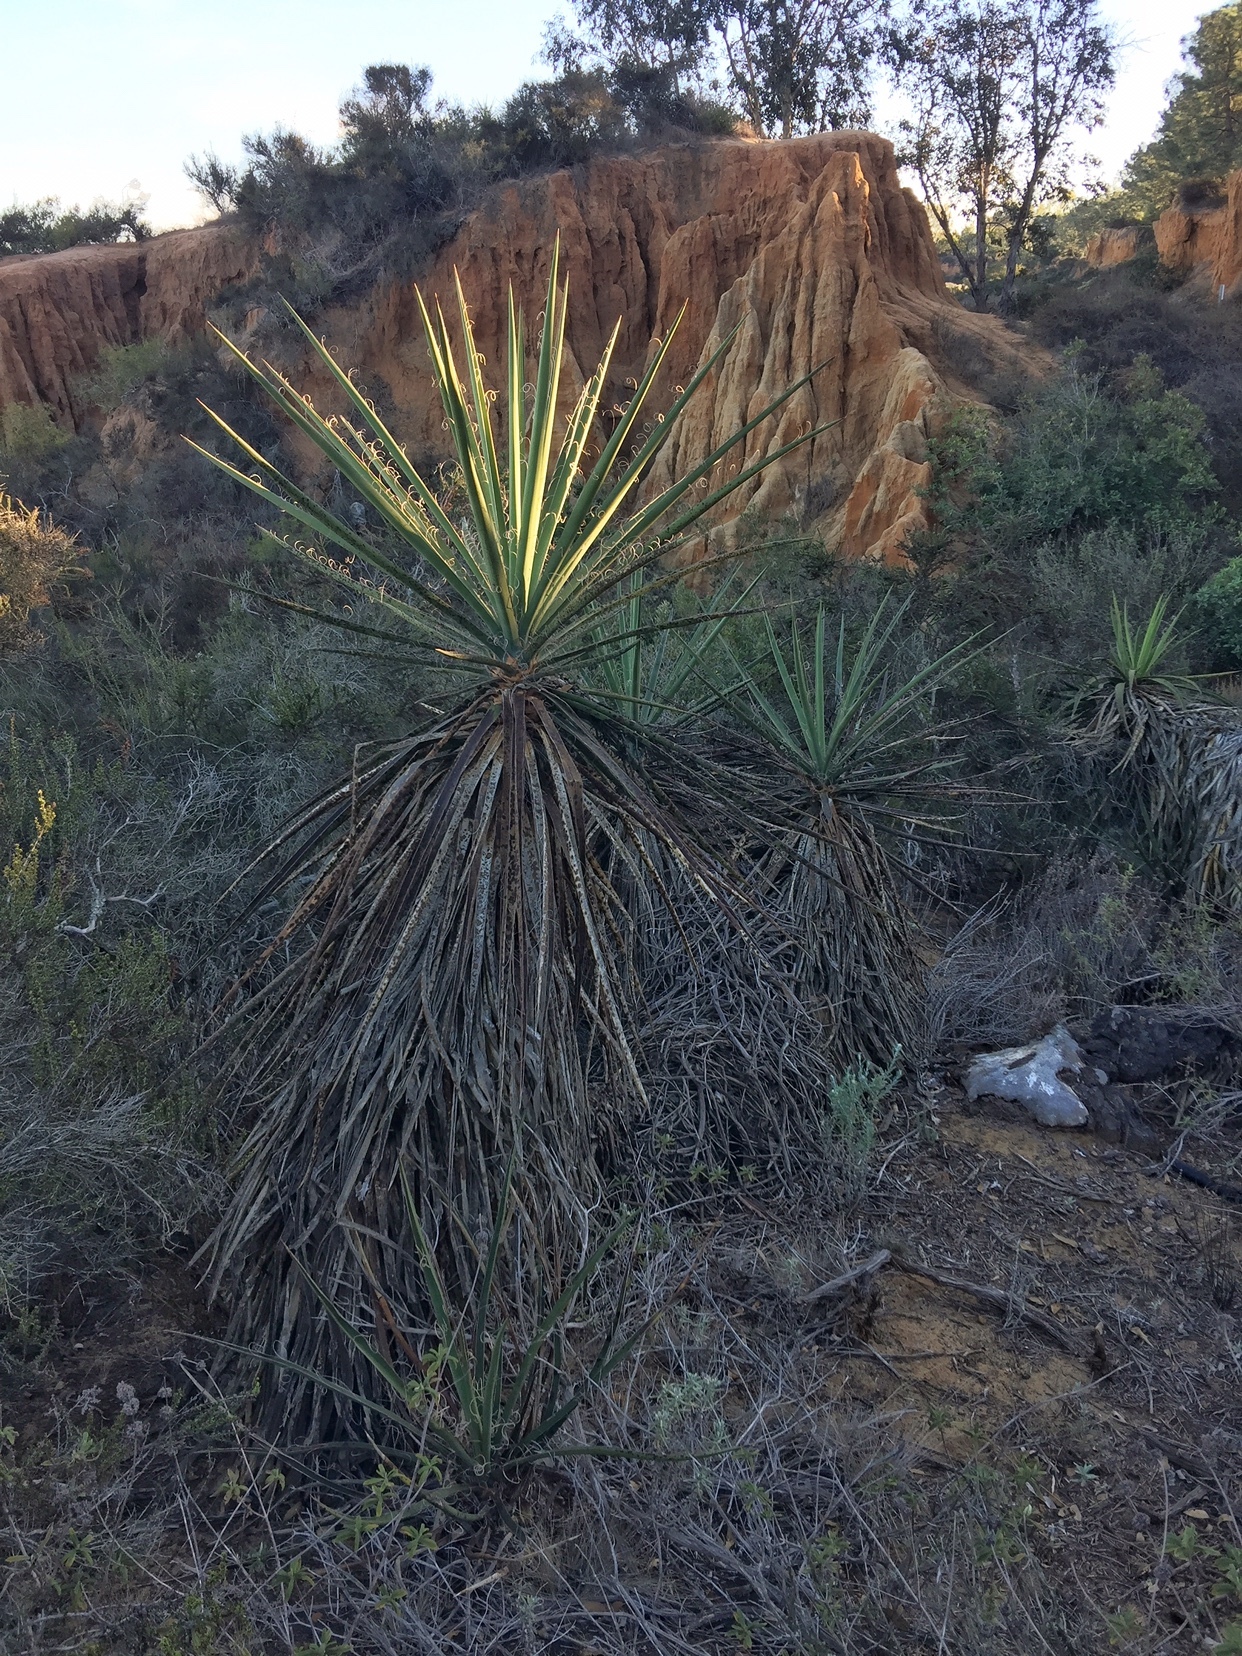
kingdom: Plantae
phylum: Tracheophyta
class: Liliopsida
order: Asparagales
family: Asparagaceae
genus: Yucca
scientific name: Yucca schidigera
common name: Mojave yucca
